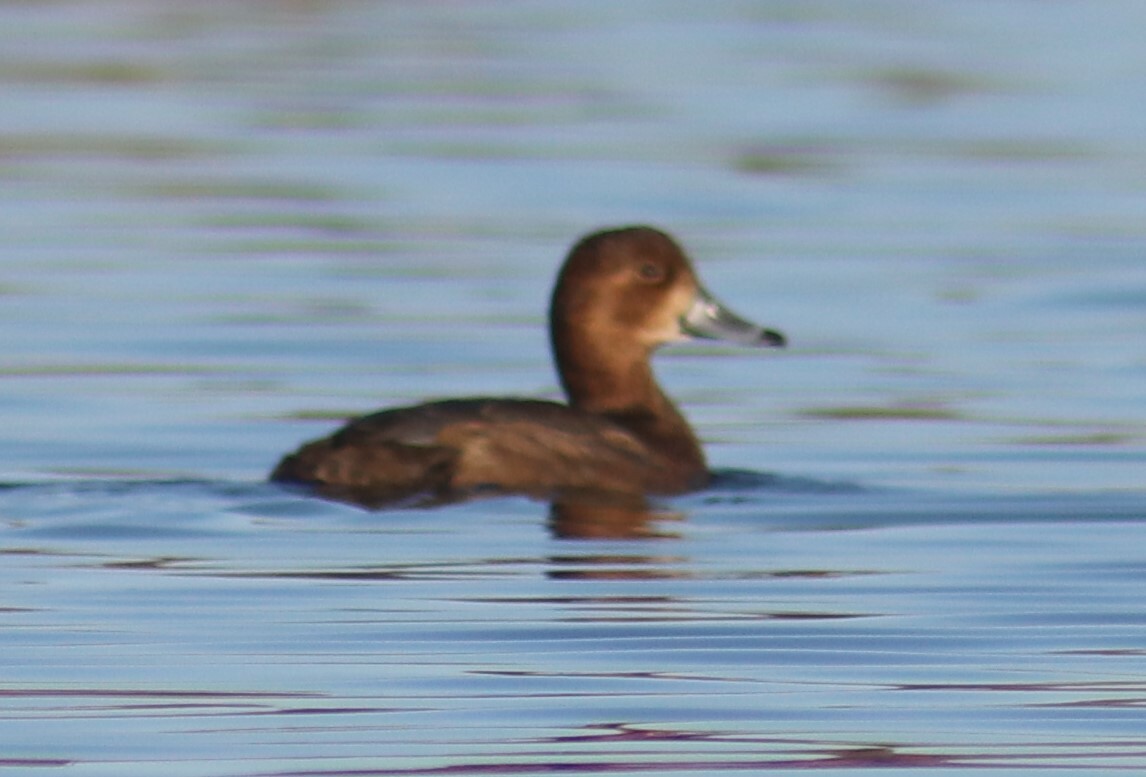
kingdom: Animalia
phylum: Chordata
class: Aves
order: Anseriformes
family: Anatidae
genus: Aythya
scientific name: Aythya collaris
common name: Ring-necked duck
